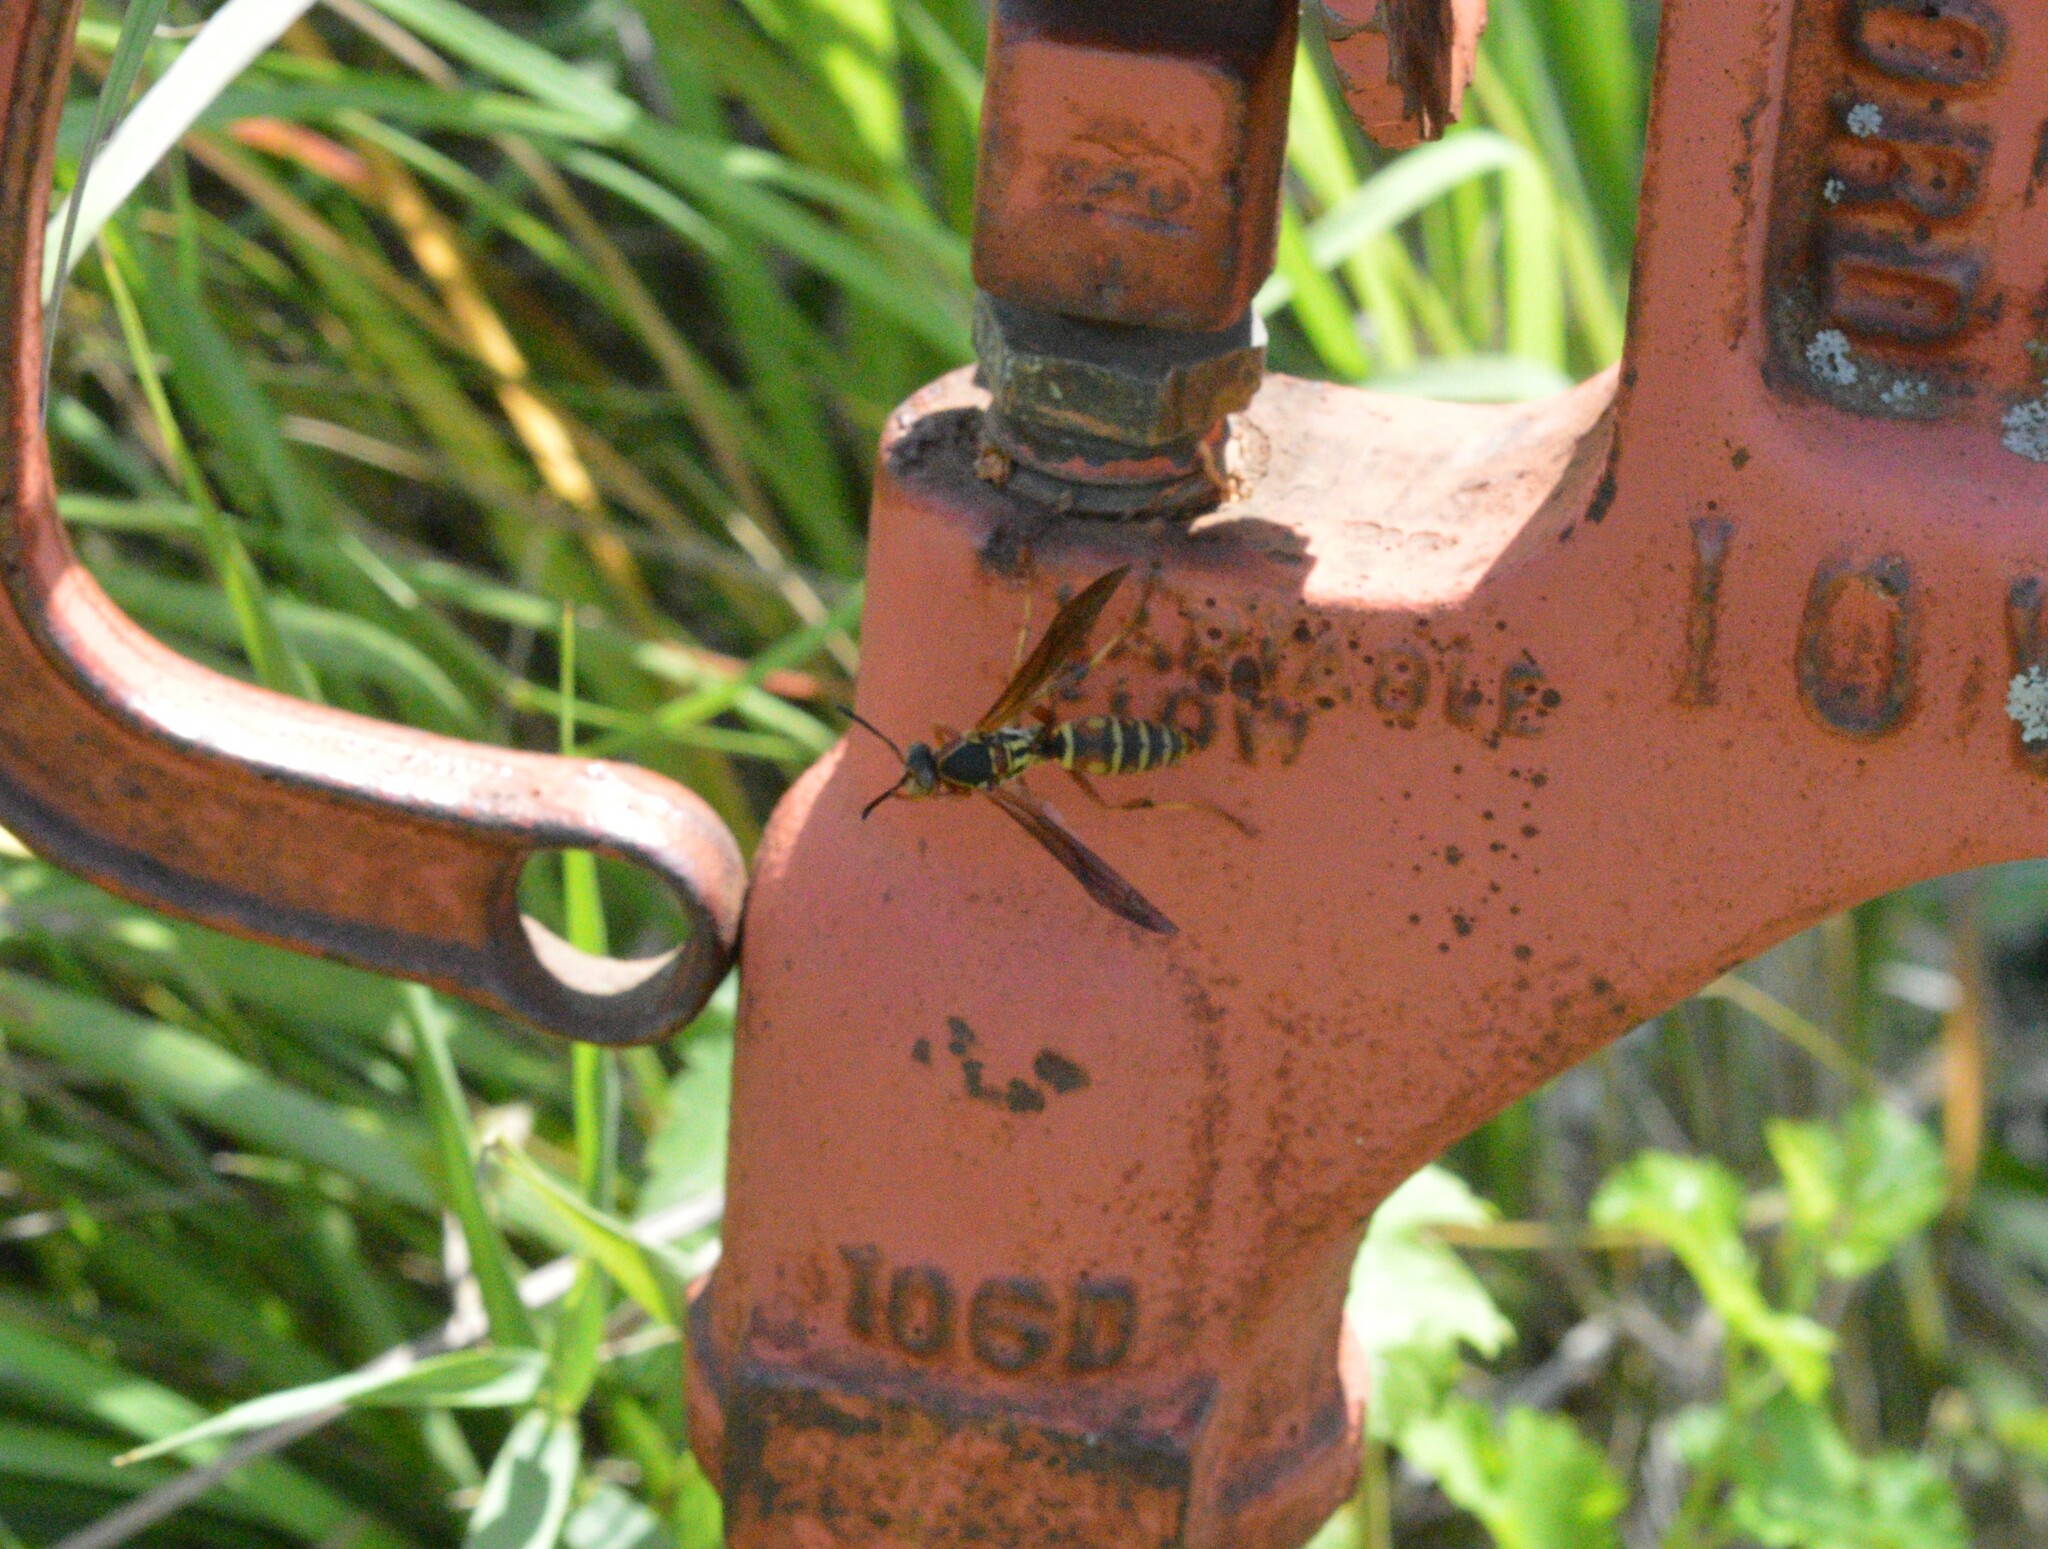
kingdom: Animalia
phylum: Arthropoda
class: Insecta
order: Hymenoptera
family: Eumenidae
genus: Polistes
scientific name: Polistes fuscatus
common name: Dark paper wasp
